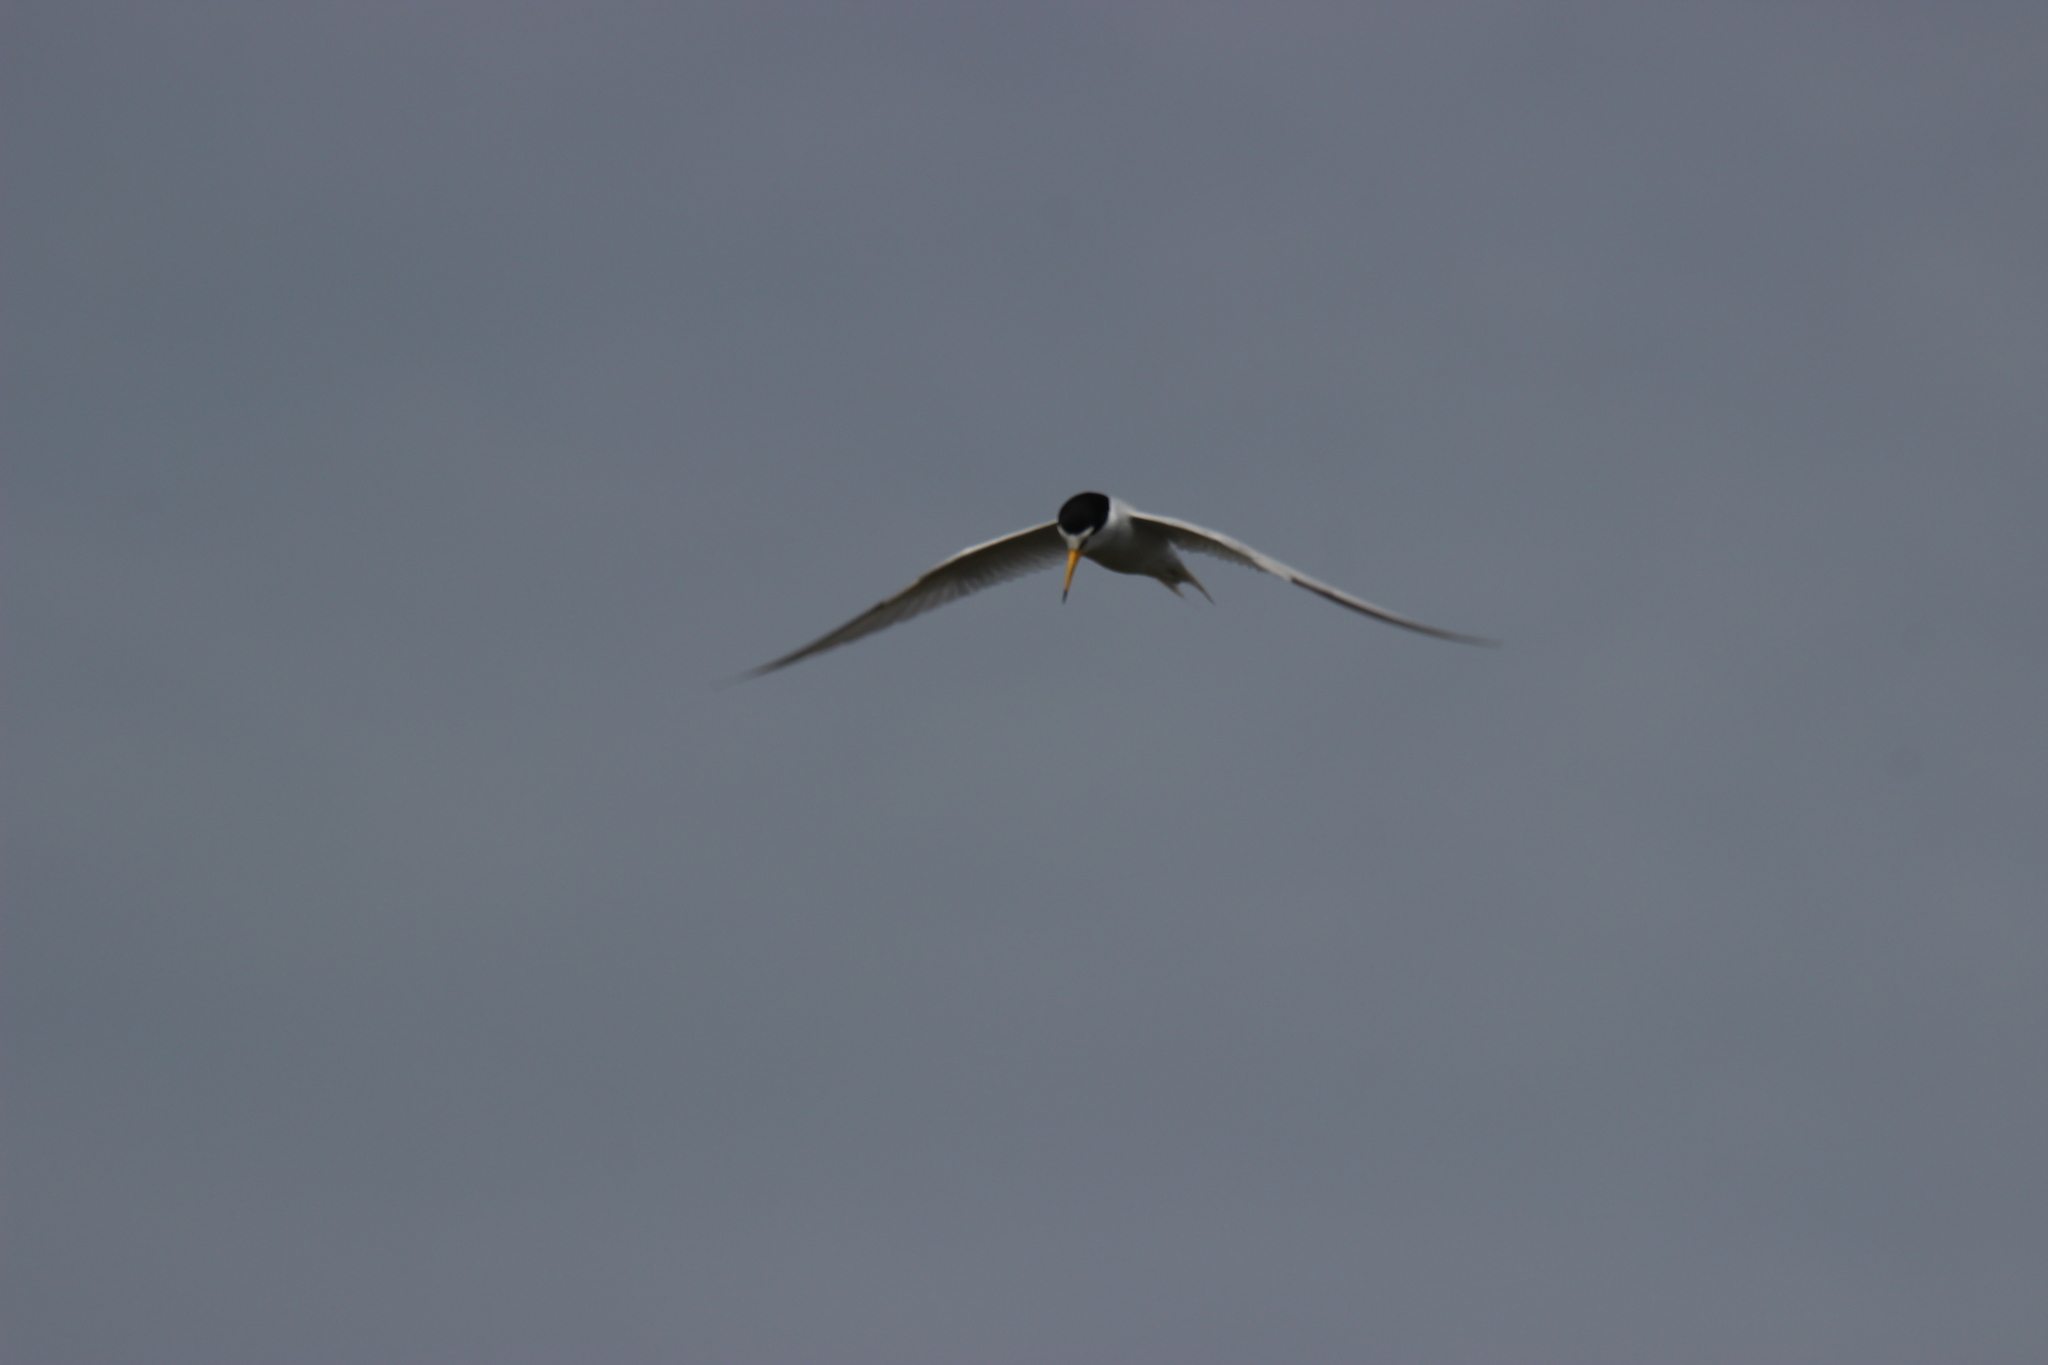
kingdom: Animalia
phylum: Chordata
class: Aves
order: Charadriiformes
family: Laridae
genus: Sternula
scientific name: Sternula antillarum
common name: Least tern
